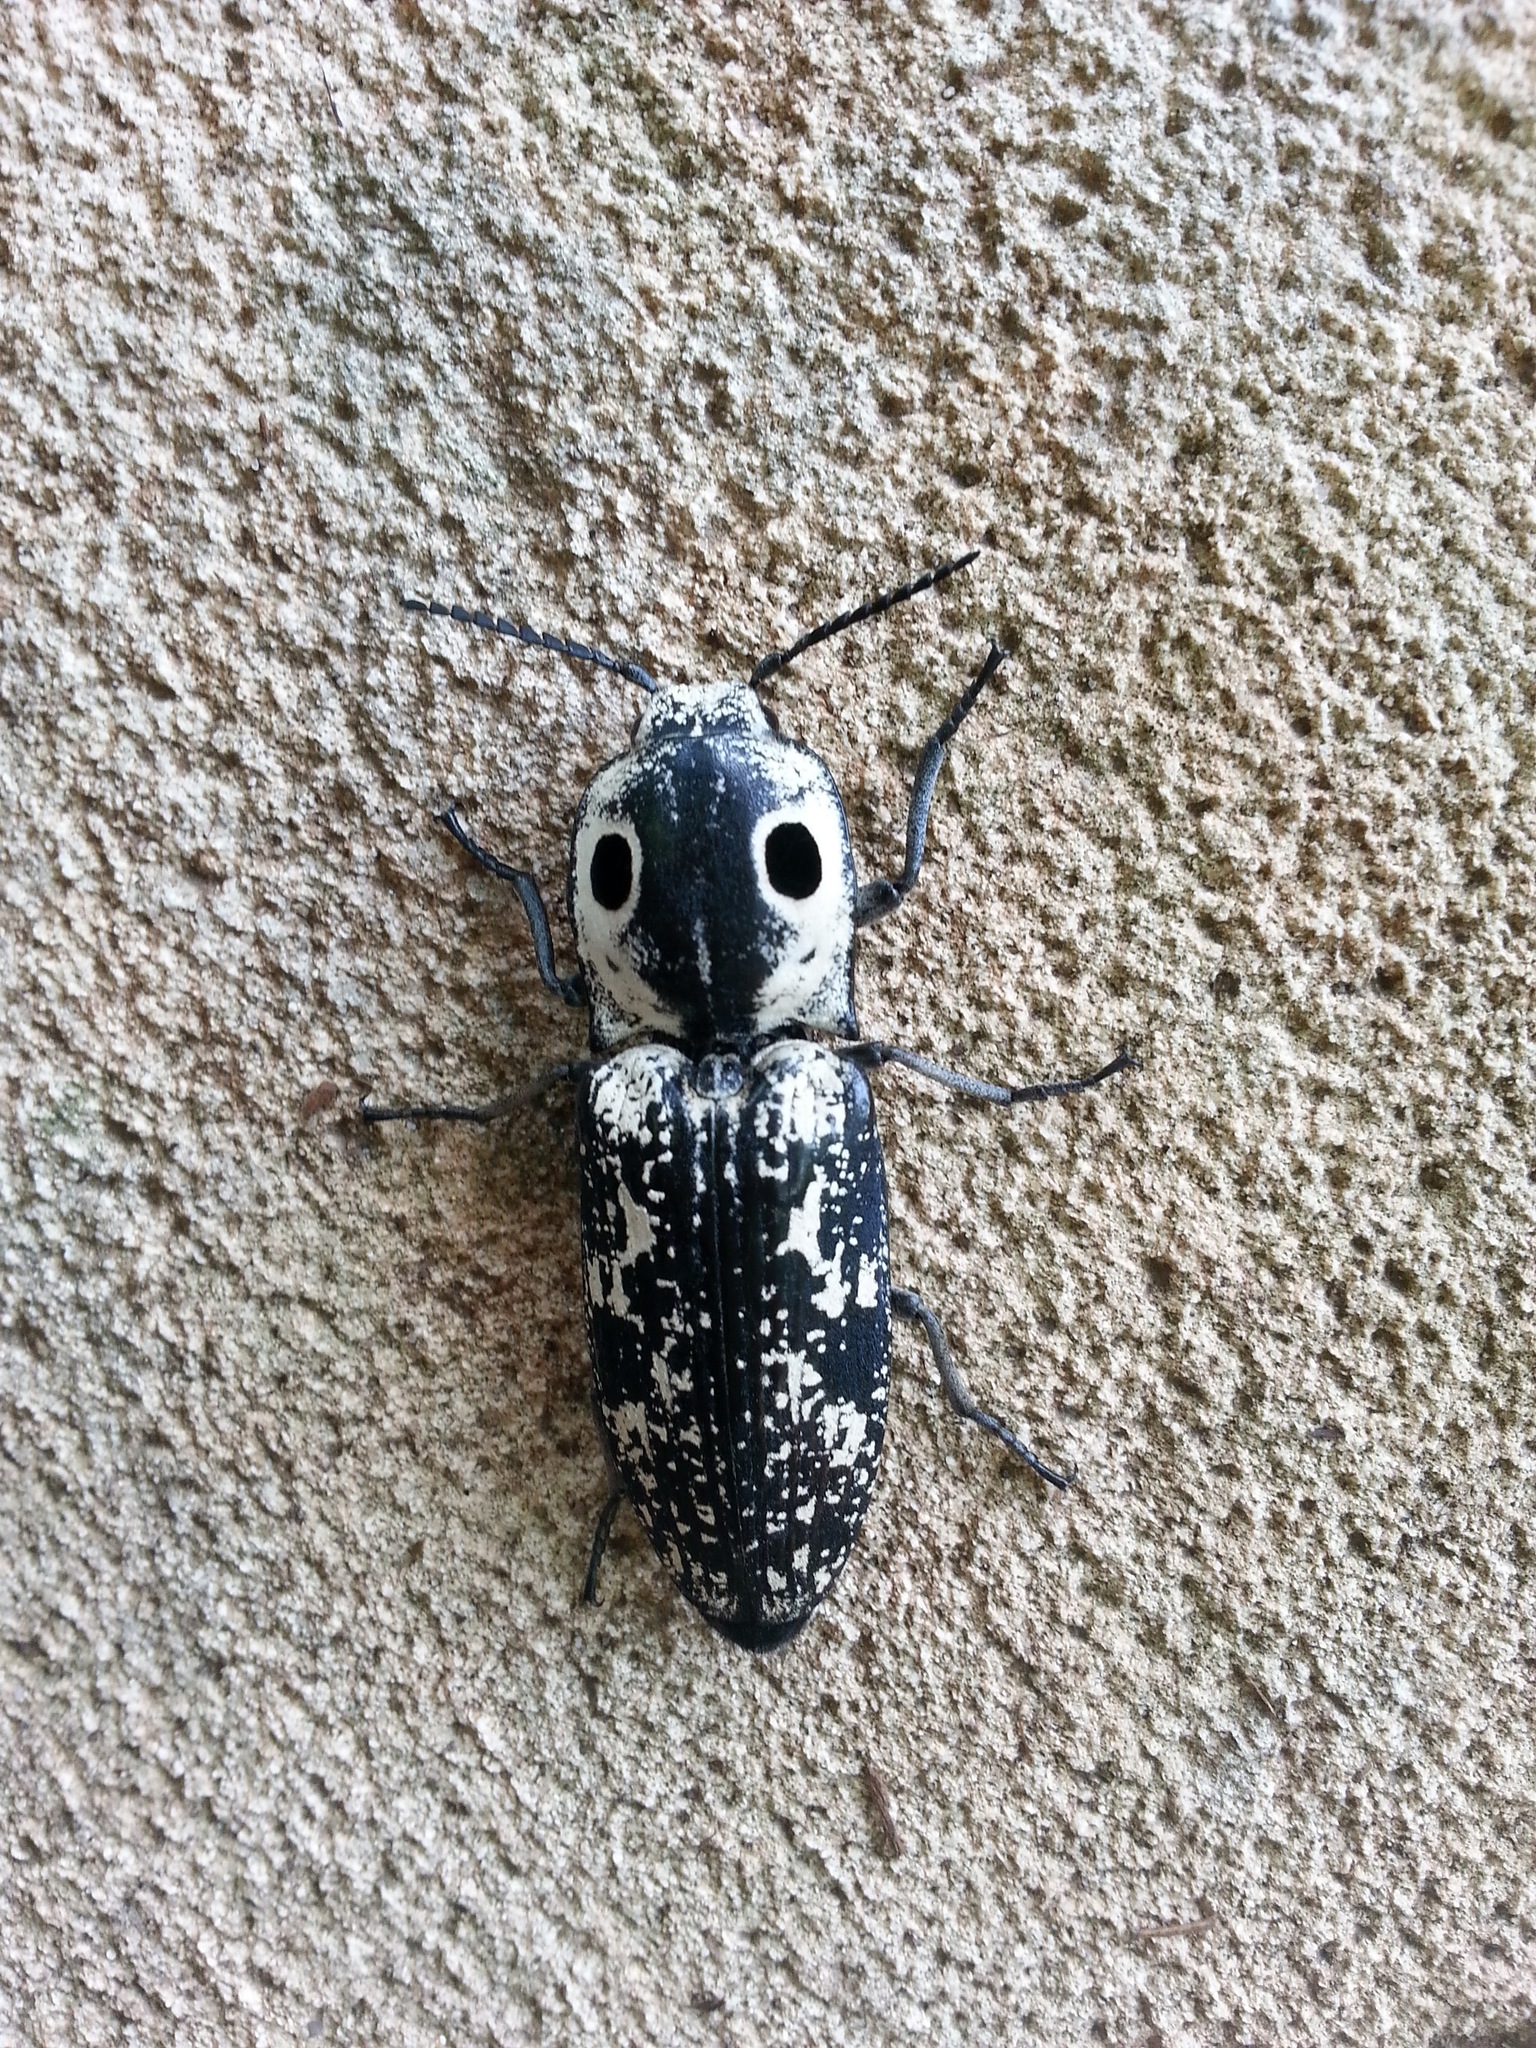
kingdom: Animalia
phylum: Arthropoda
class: Insecta
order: Coleoptera
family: Elateridae
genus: Alaus
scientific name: Alaus
